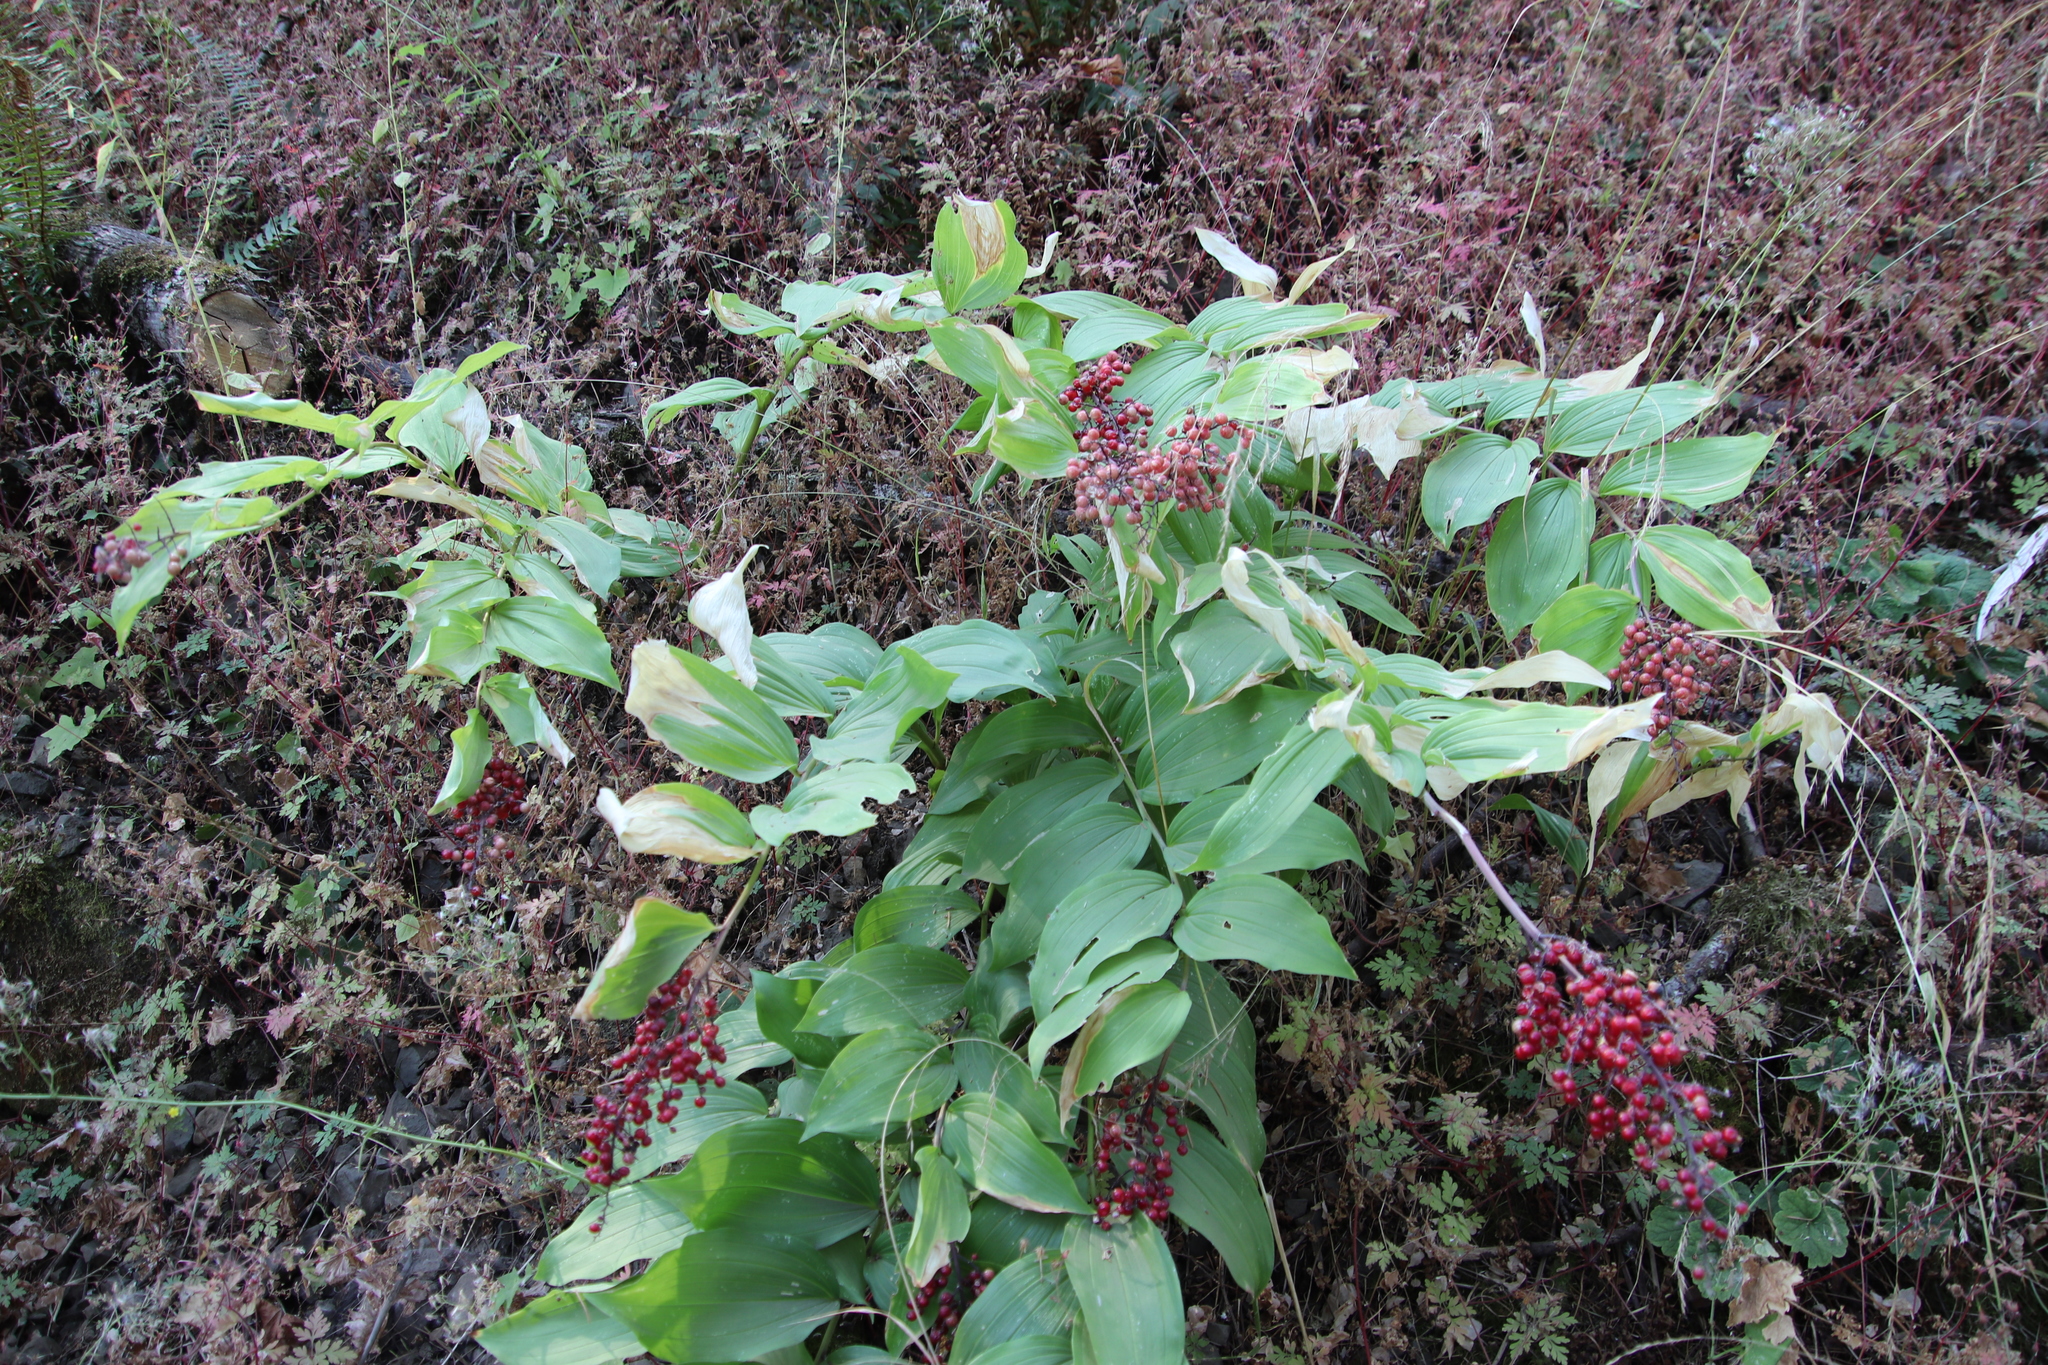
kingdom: Plantae
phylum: Tracheophyta
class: Liliopsida
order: Asparagales
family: Asparagaceae
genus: Maianthemum
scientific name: Maianthemum racemosum
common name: False spikenard
